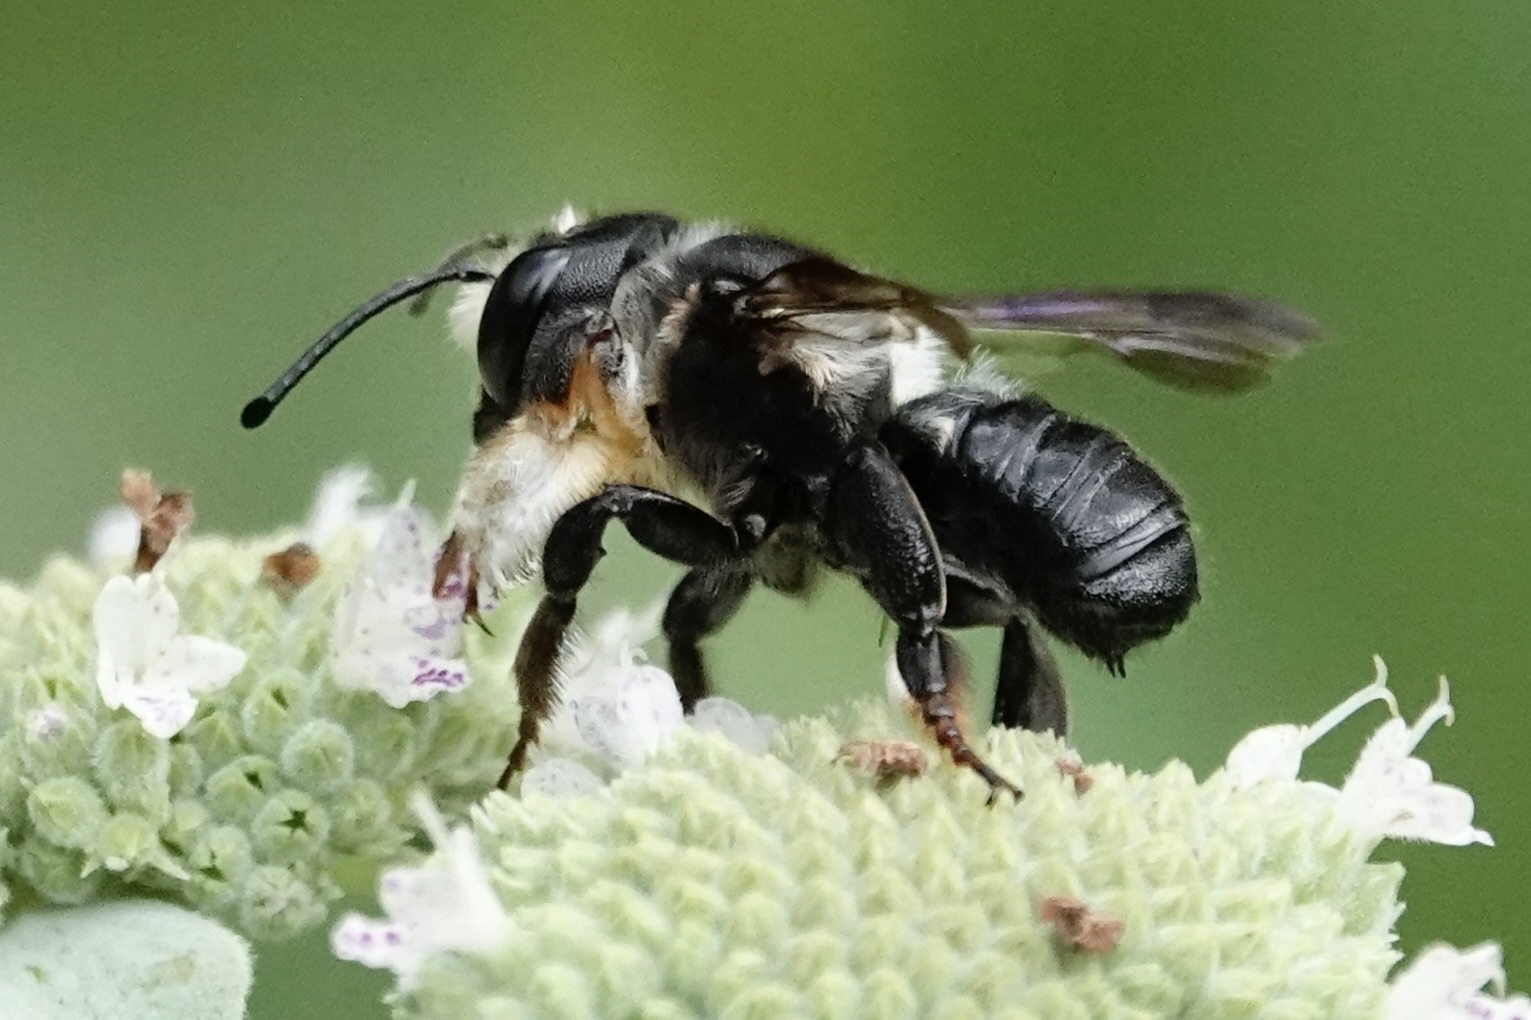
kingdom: Animalia
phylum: Arthropoda
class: Insecta
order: Hymenoptera
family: Megachilidae
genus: Megachile
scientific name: Megachile xylocopoides
